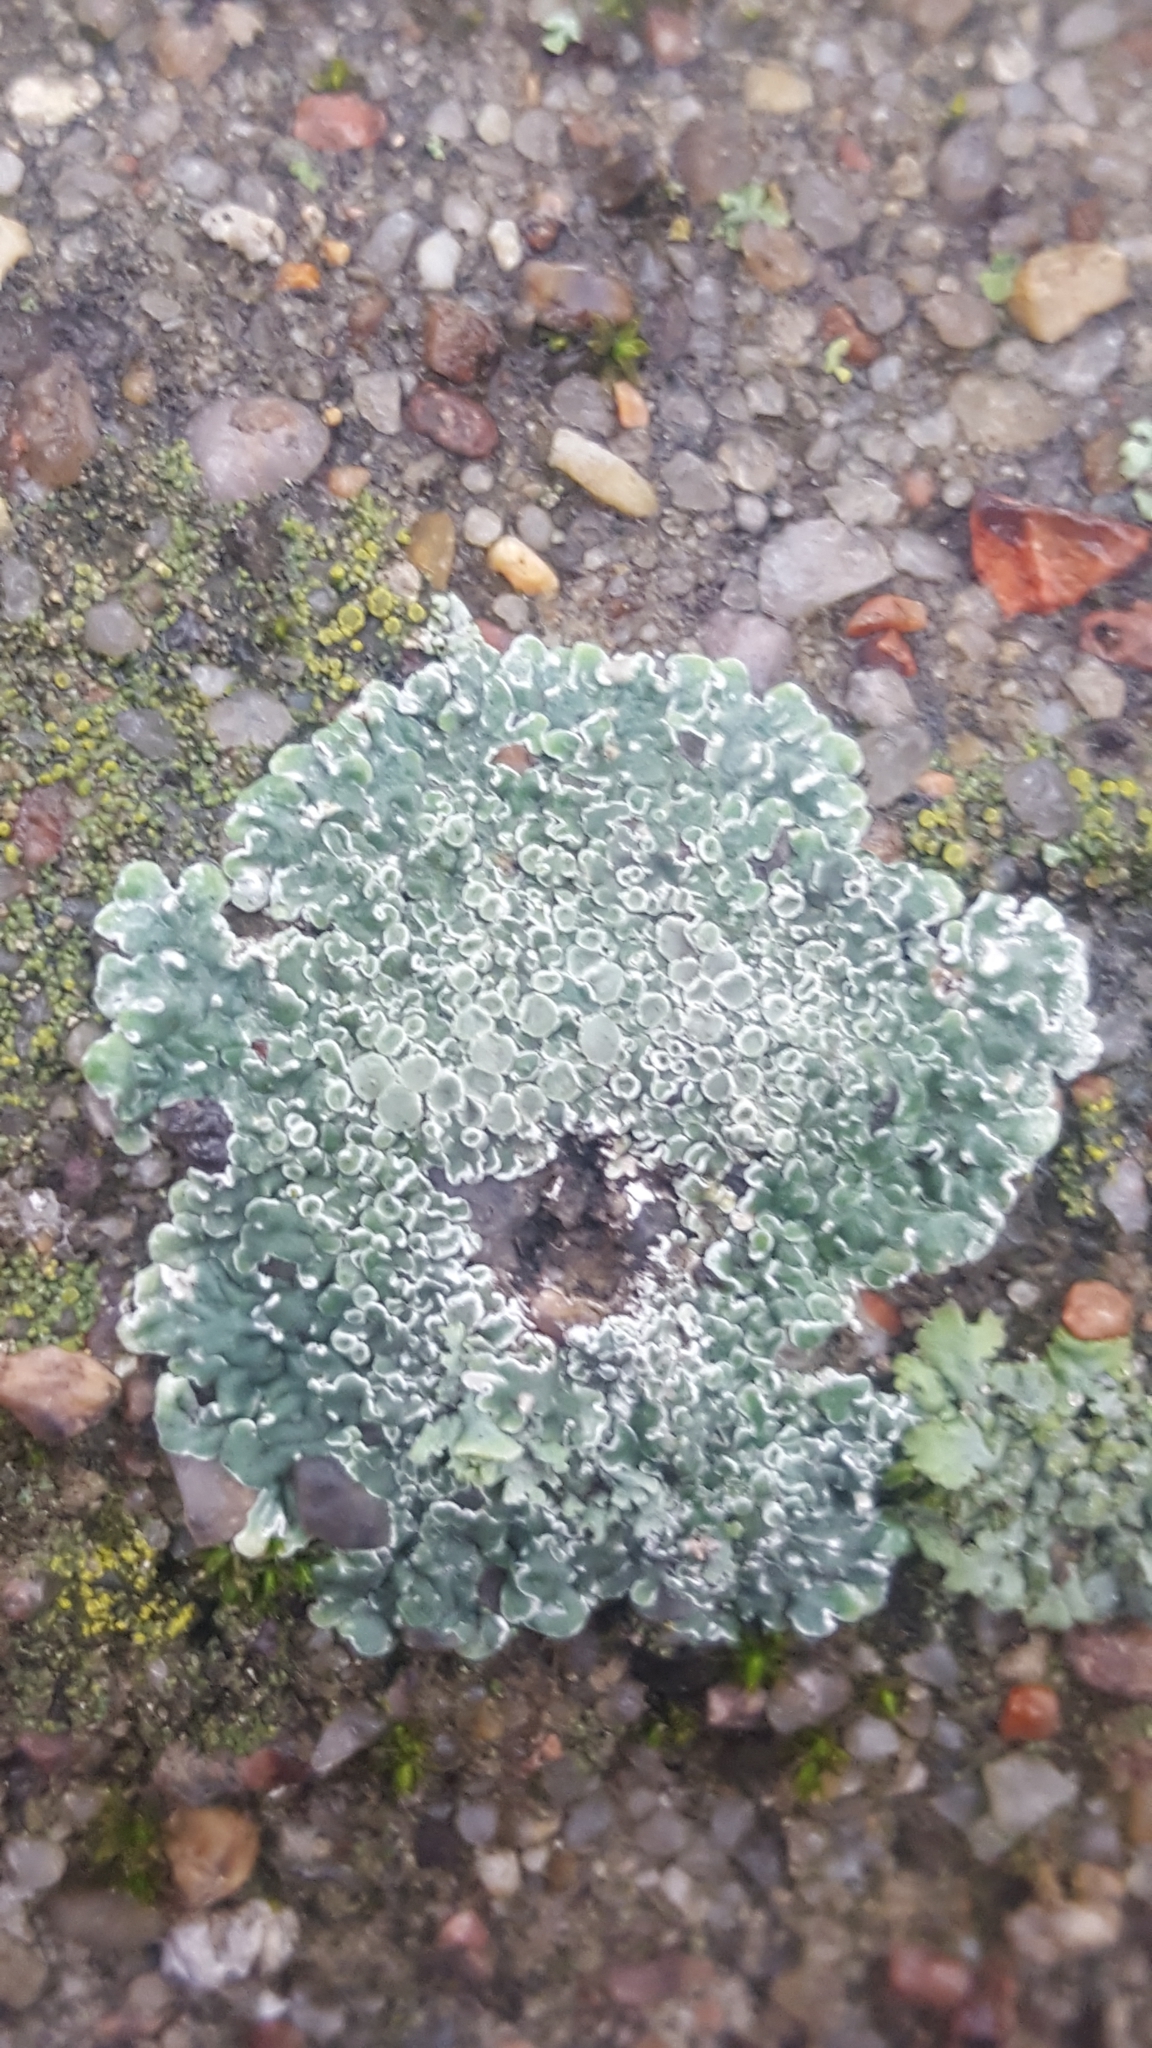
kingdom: Fungi
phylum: Ascomycota
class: Lecanoromycetes
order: Lecanorales
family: Lecanoraceae
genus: Protoparmeliopsis
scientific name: Protoparmeliopsis muralis
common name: Stonewall rim lichen
